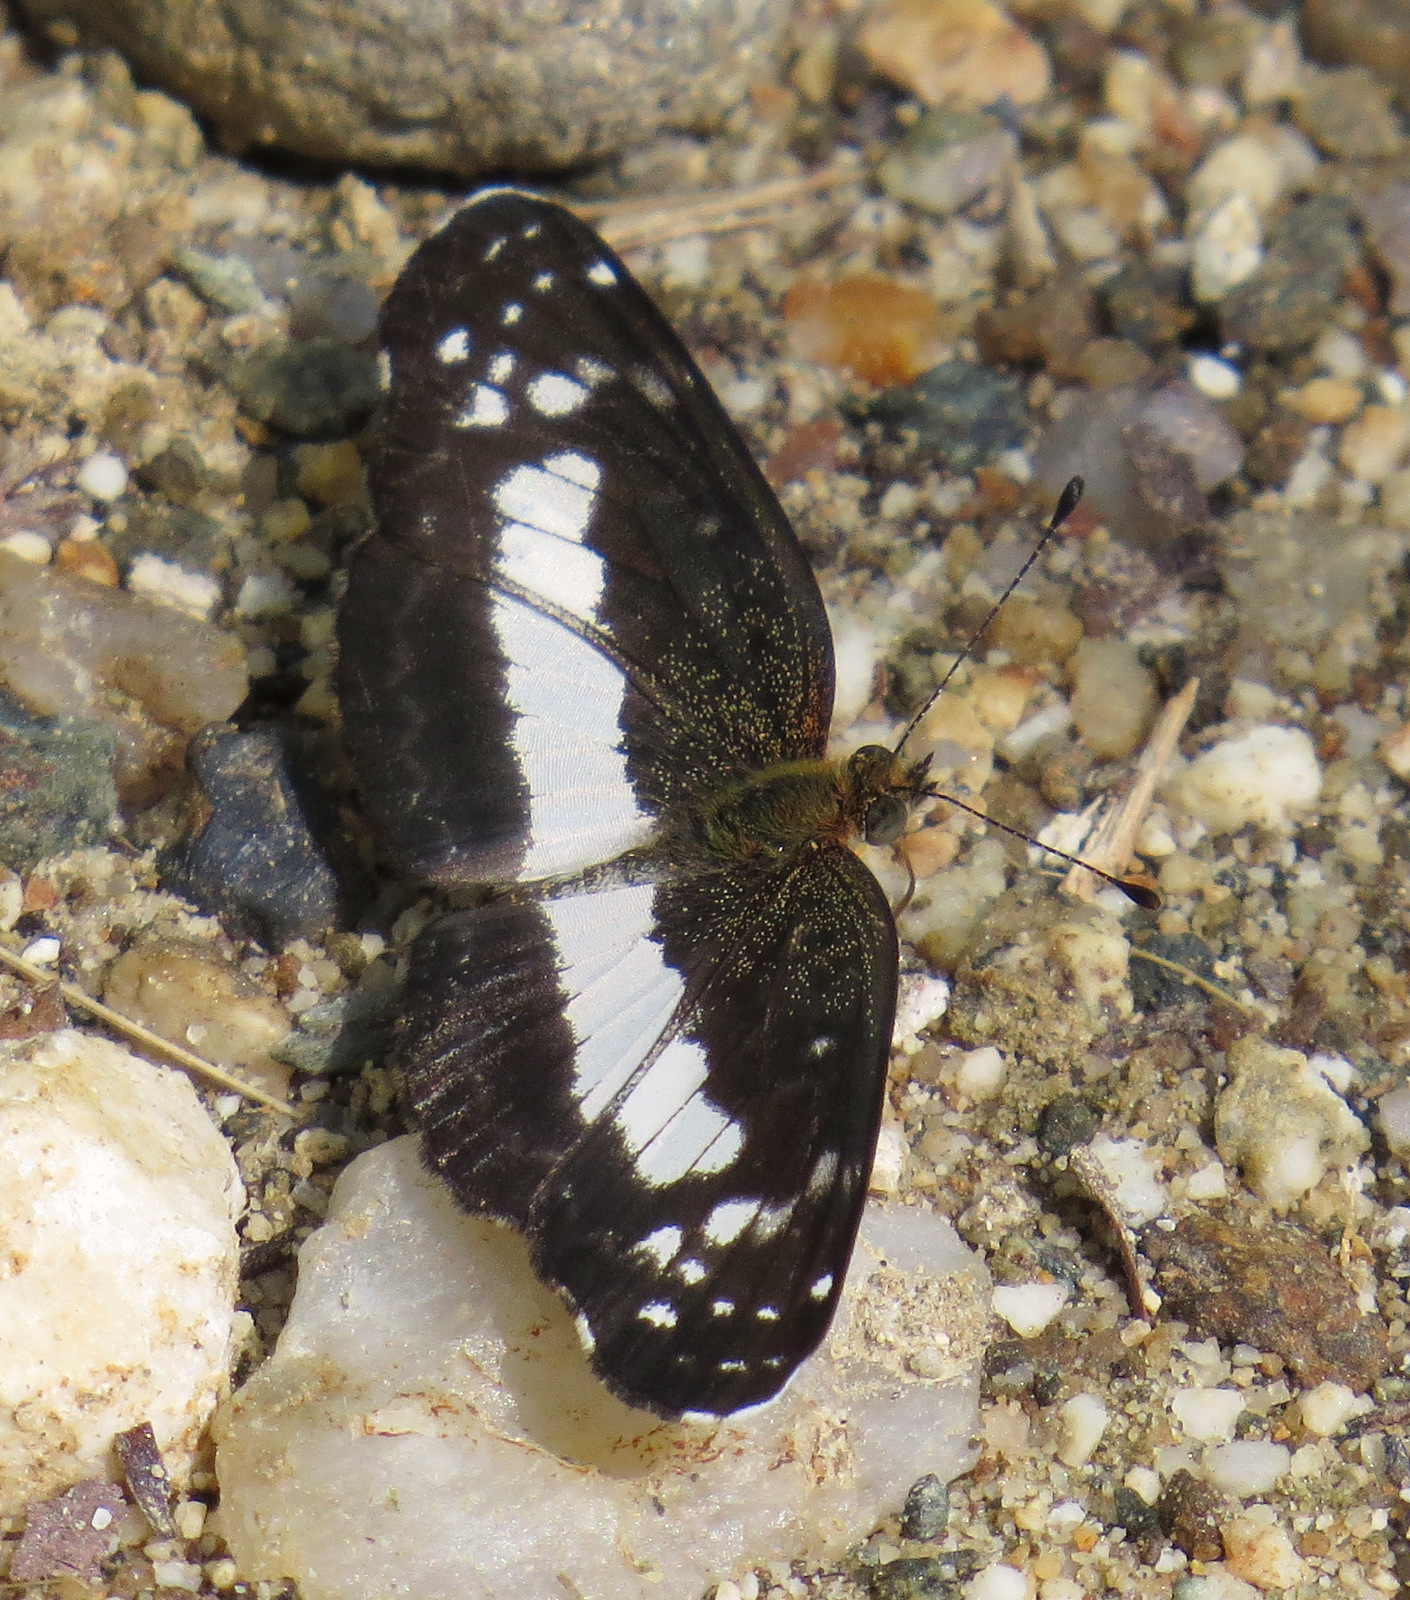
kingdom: Animalia
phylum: Arthropoda
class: Insecta
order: Lepidoptera
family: Nymphalidae
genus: Castilia
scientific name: Castilia ofella
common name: White-dotted crescent
